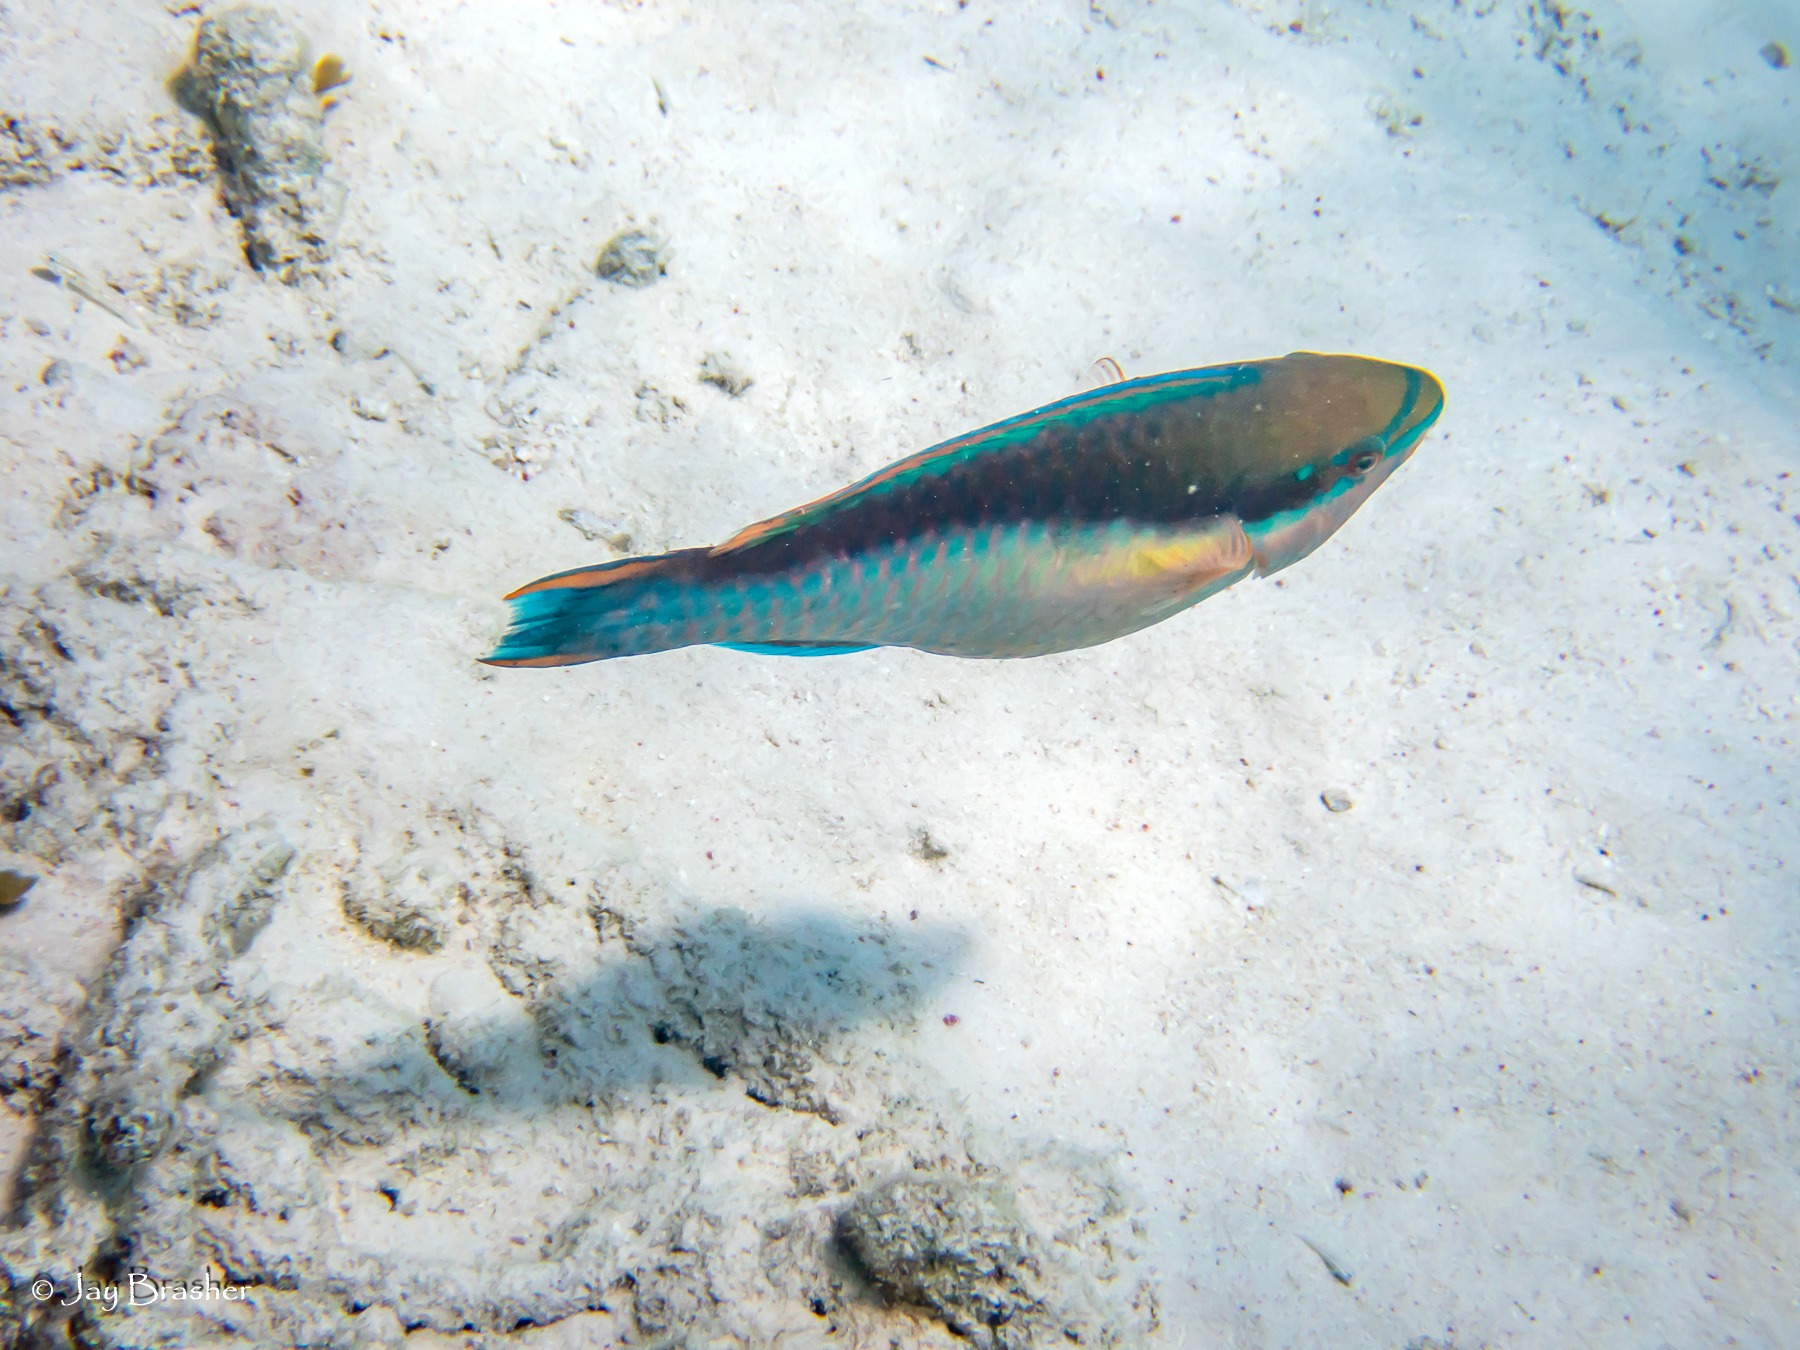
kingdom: Animalia
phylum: Chordata
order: Perciformes
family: Scaridae
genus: Scarus
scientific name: Scarus taeniopterus
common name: Princess parrotfish
